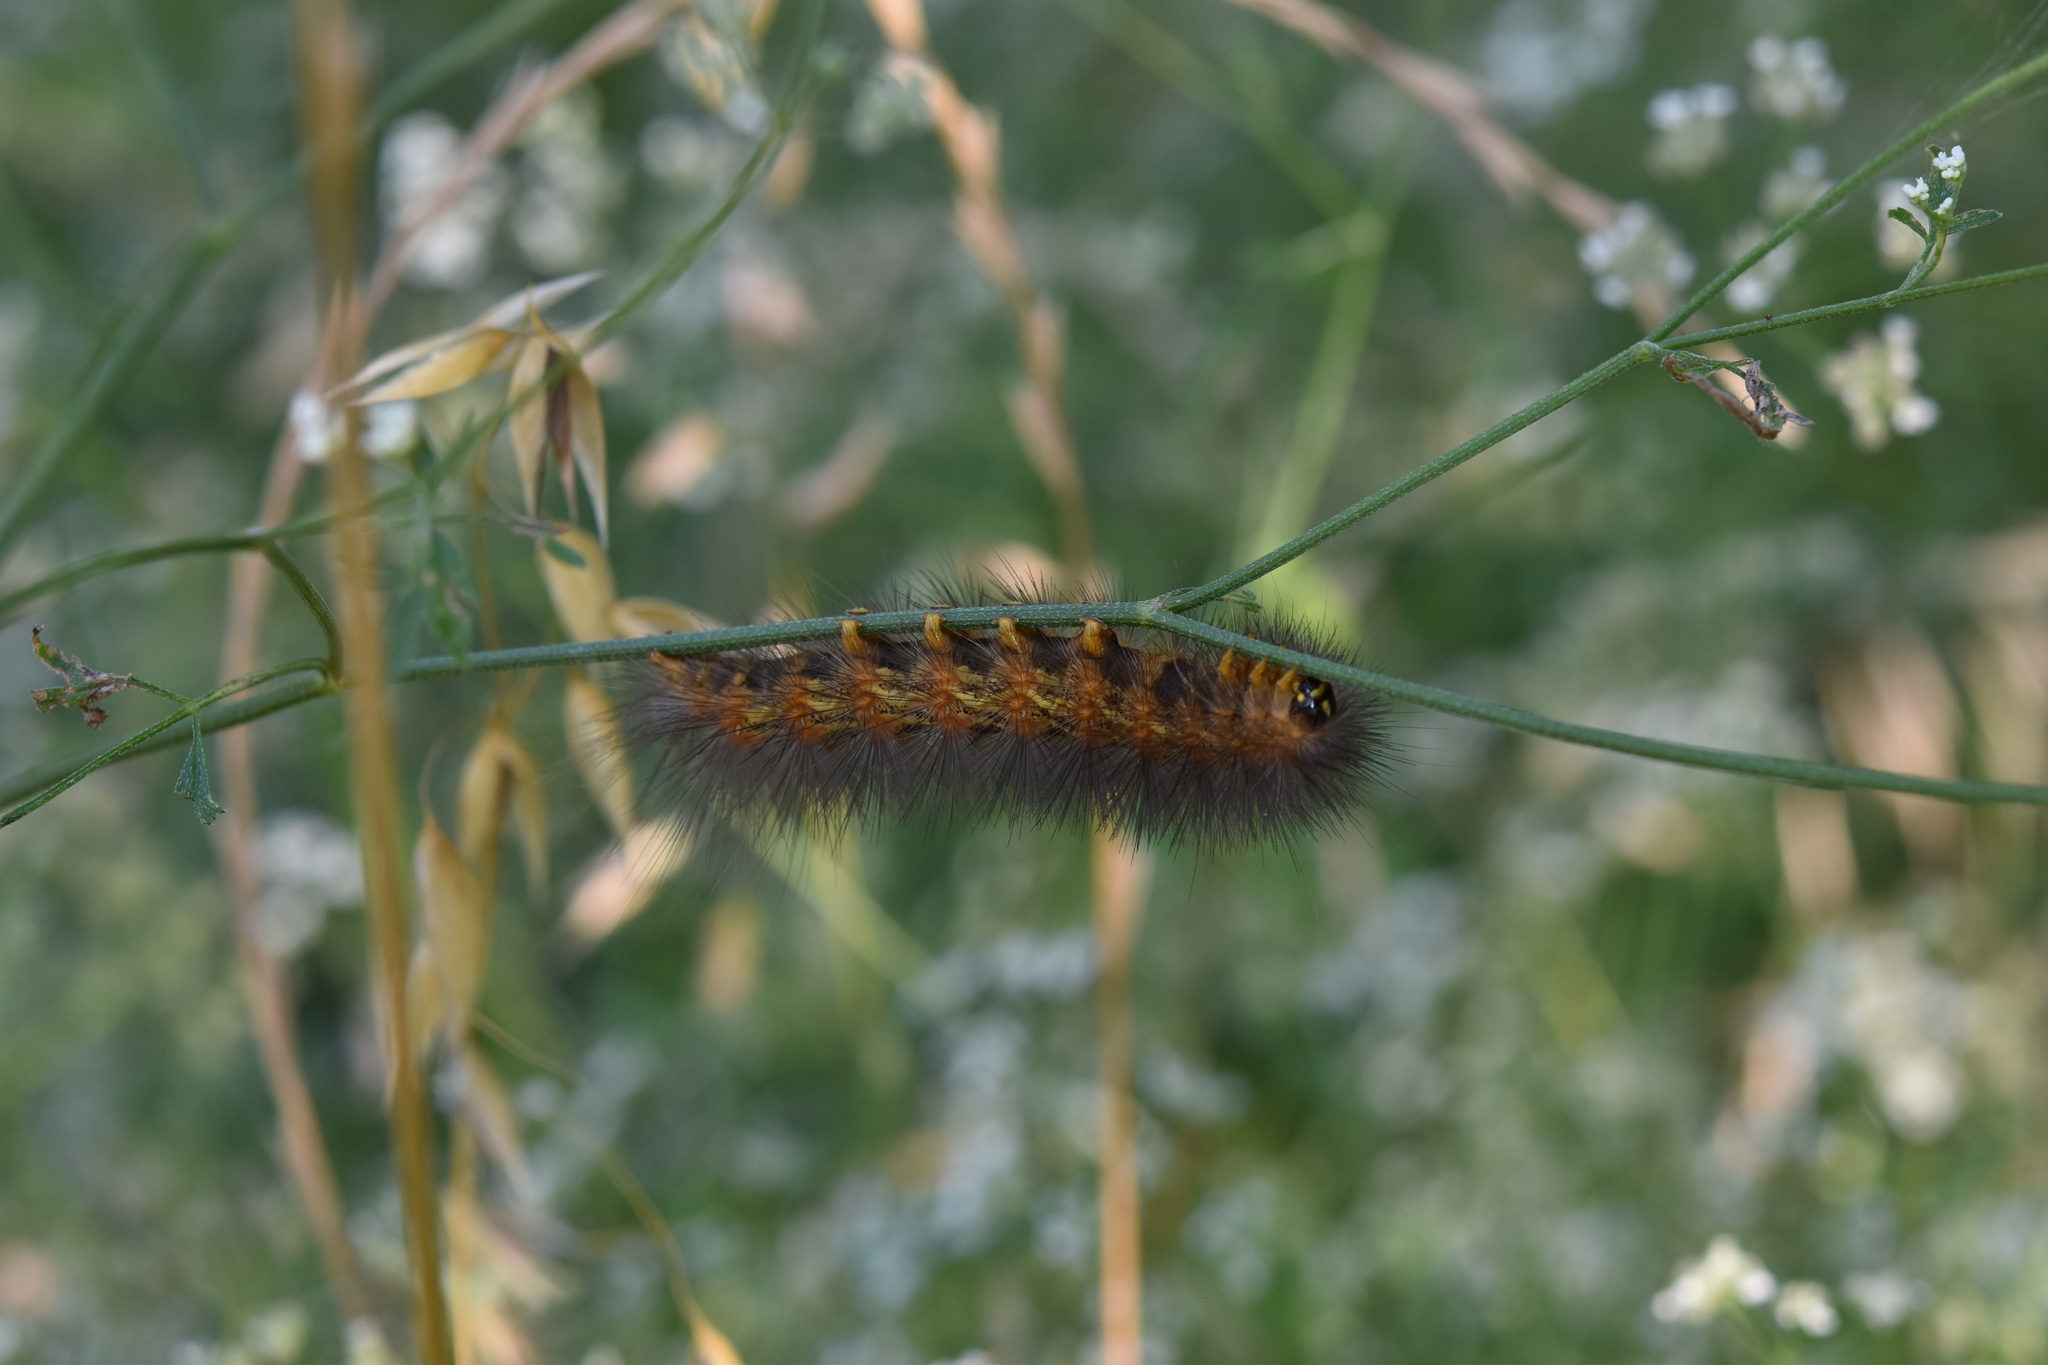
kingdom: Animalia
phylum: Arthropoda
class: Insecta
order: Lepidoptera
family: Erebidae
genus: Estigmene
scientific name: Estigmene acrea
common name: Salt marsh moth
